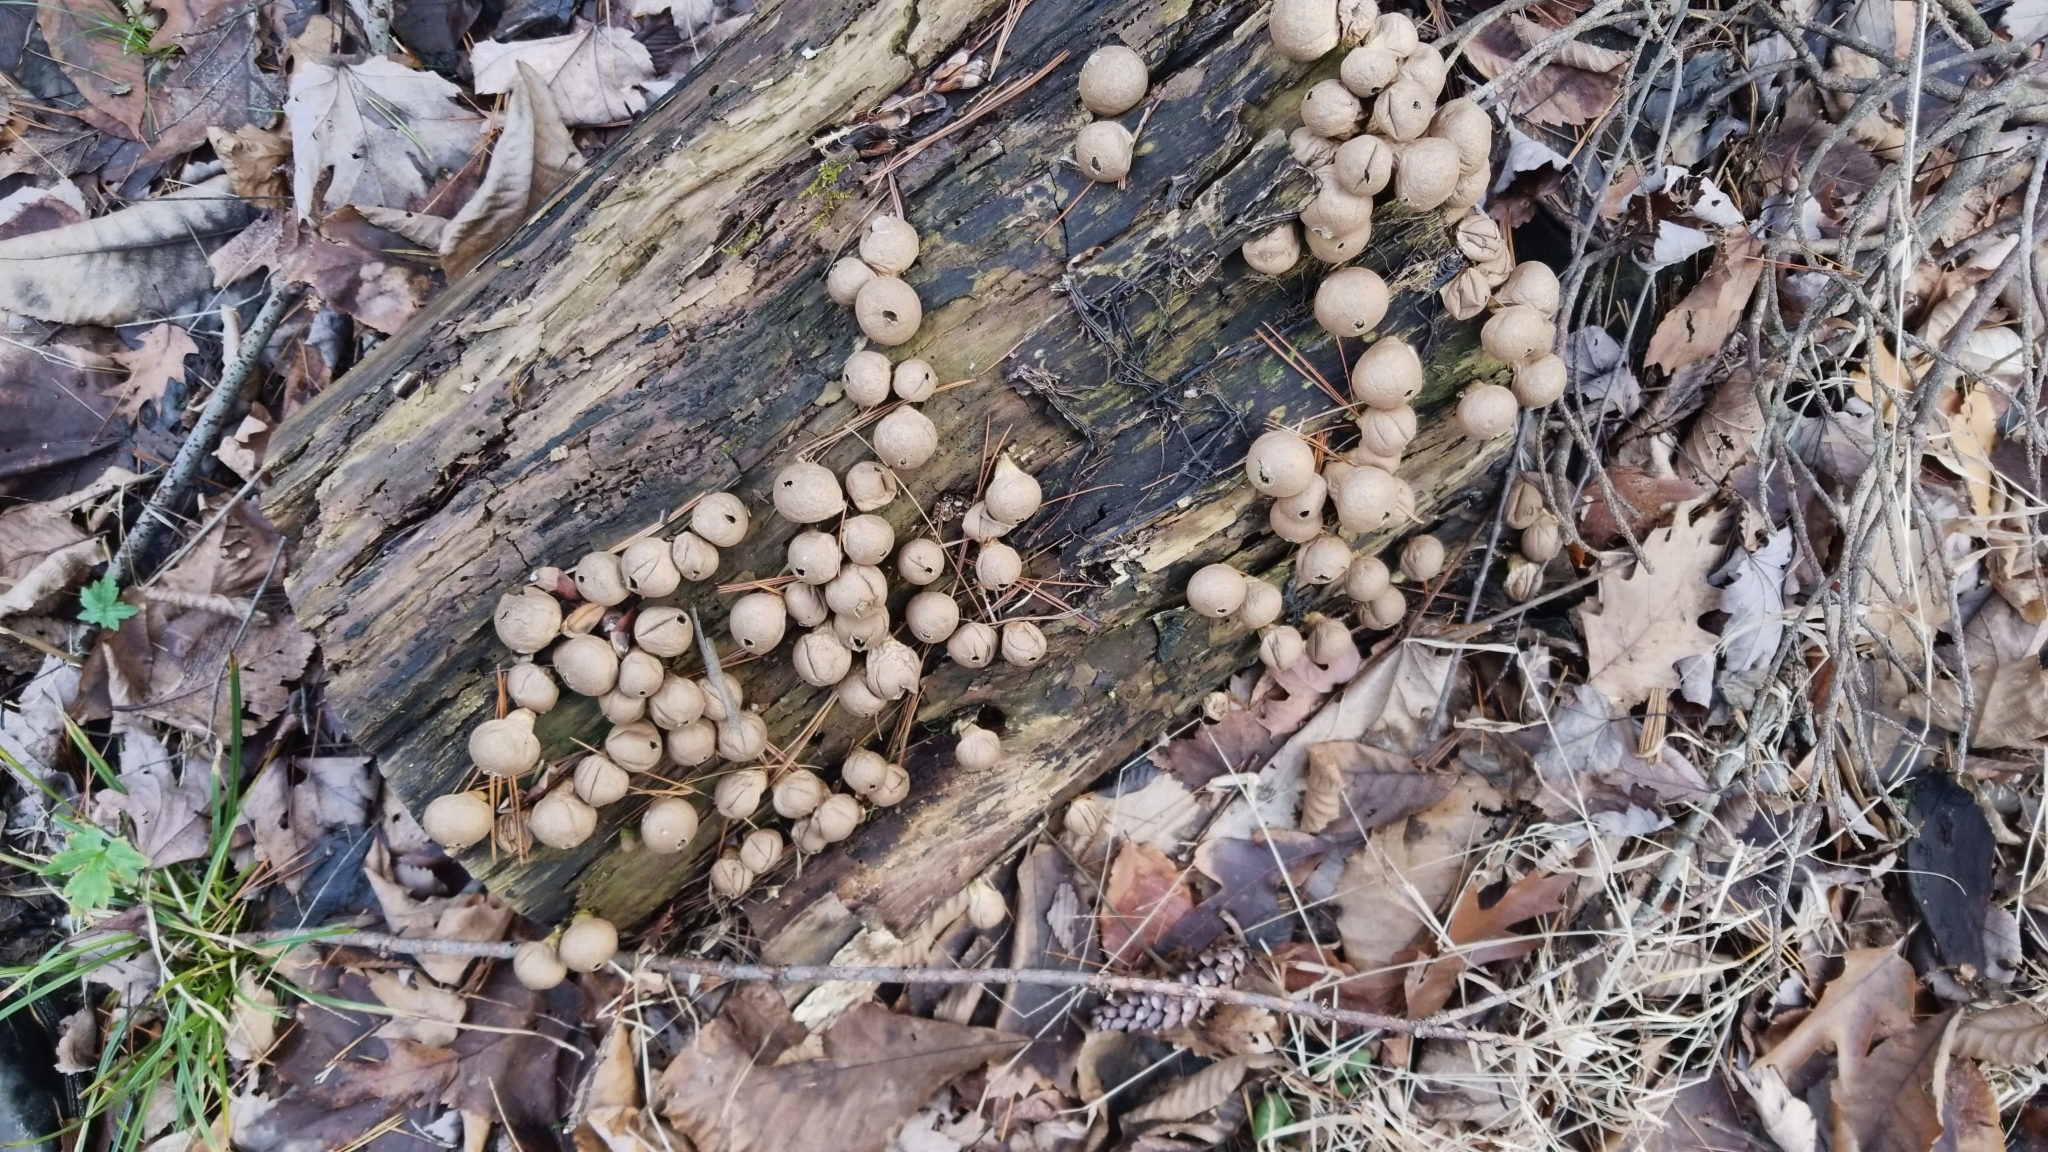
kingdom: Fungi
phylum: Basidiomycota
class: Agaricomycetes
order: Agaricales
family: Lycoperdaceae
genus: Apioperdon
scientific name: Apioperdon pyriforme
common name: Pear-shaped puffball
